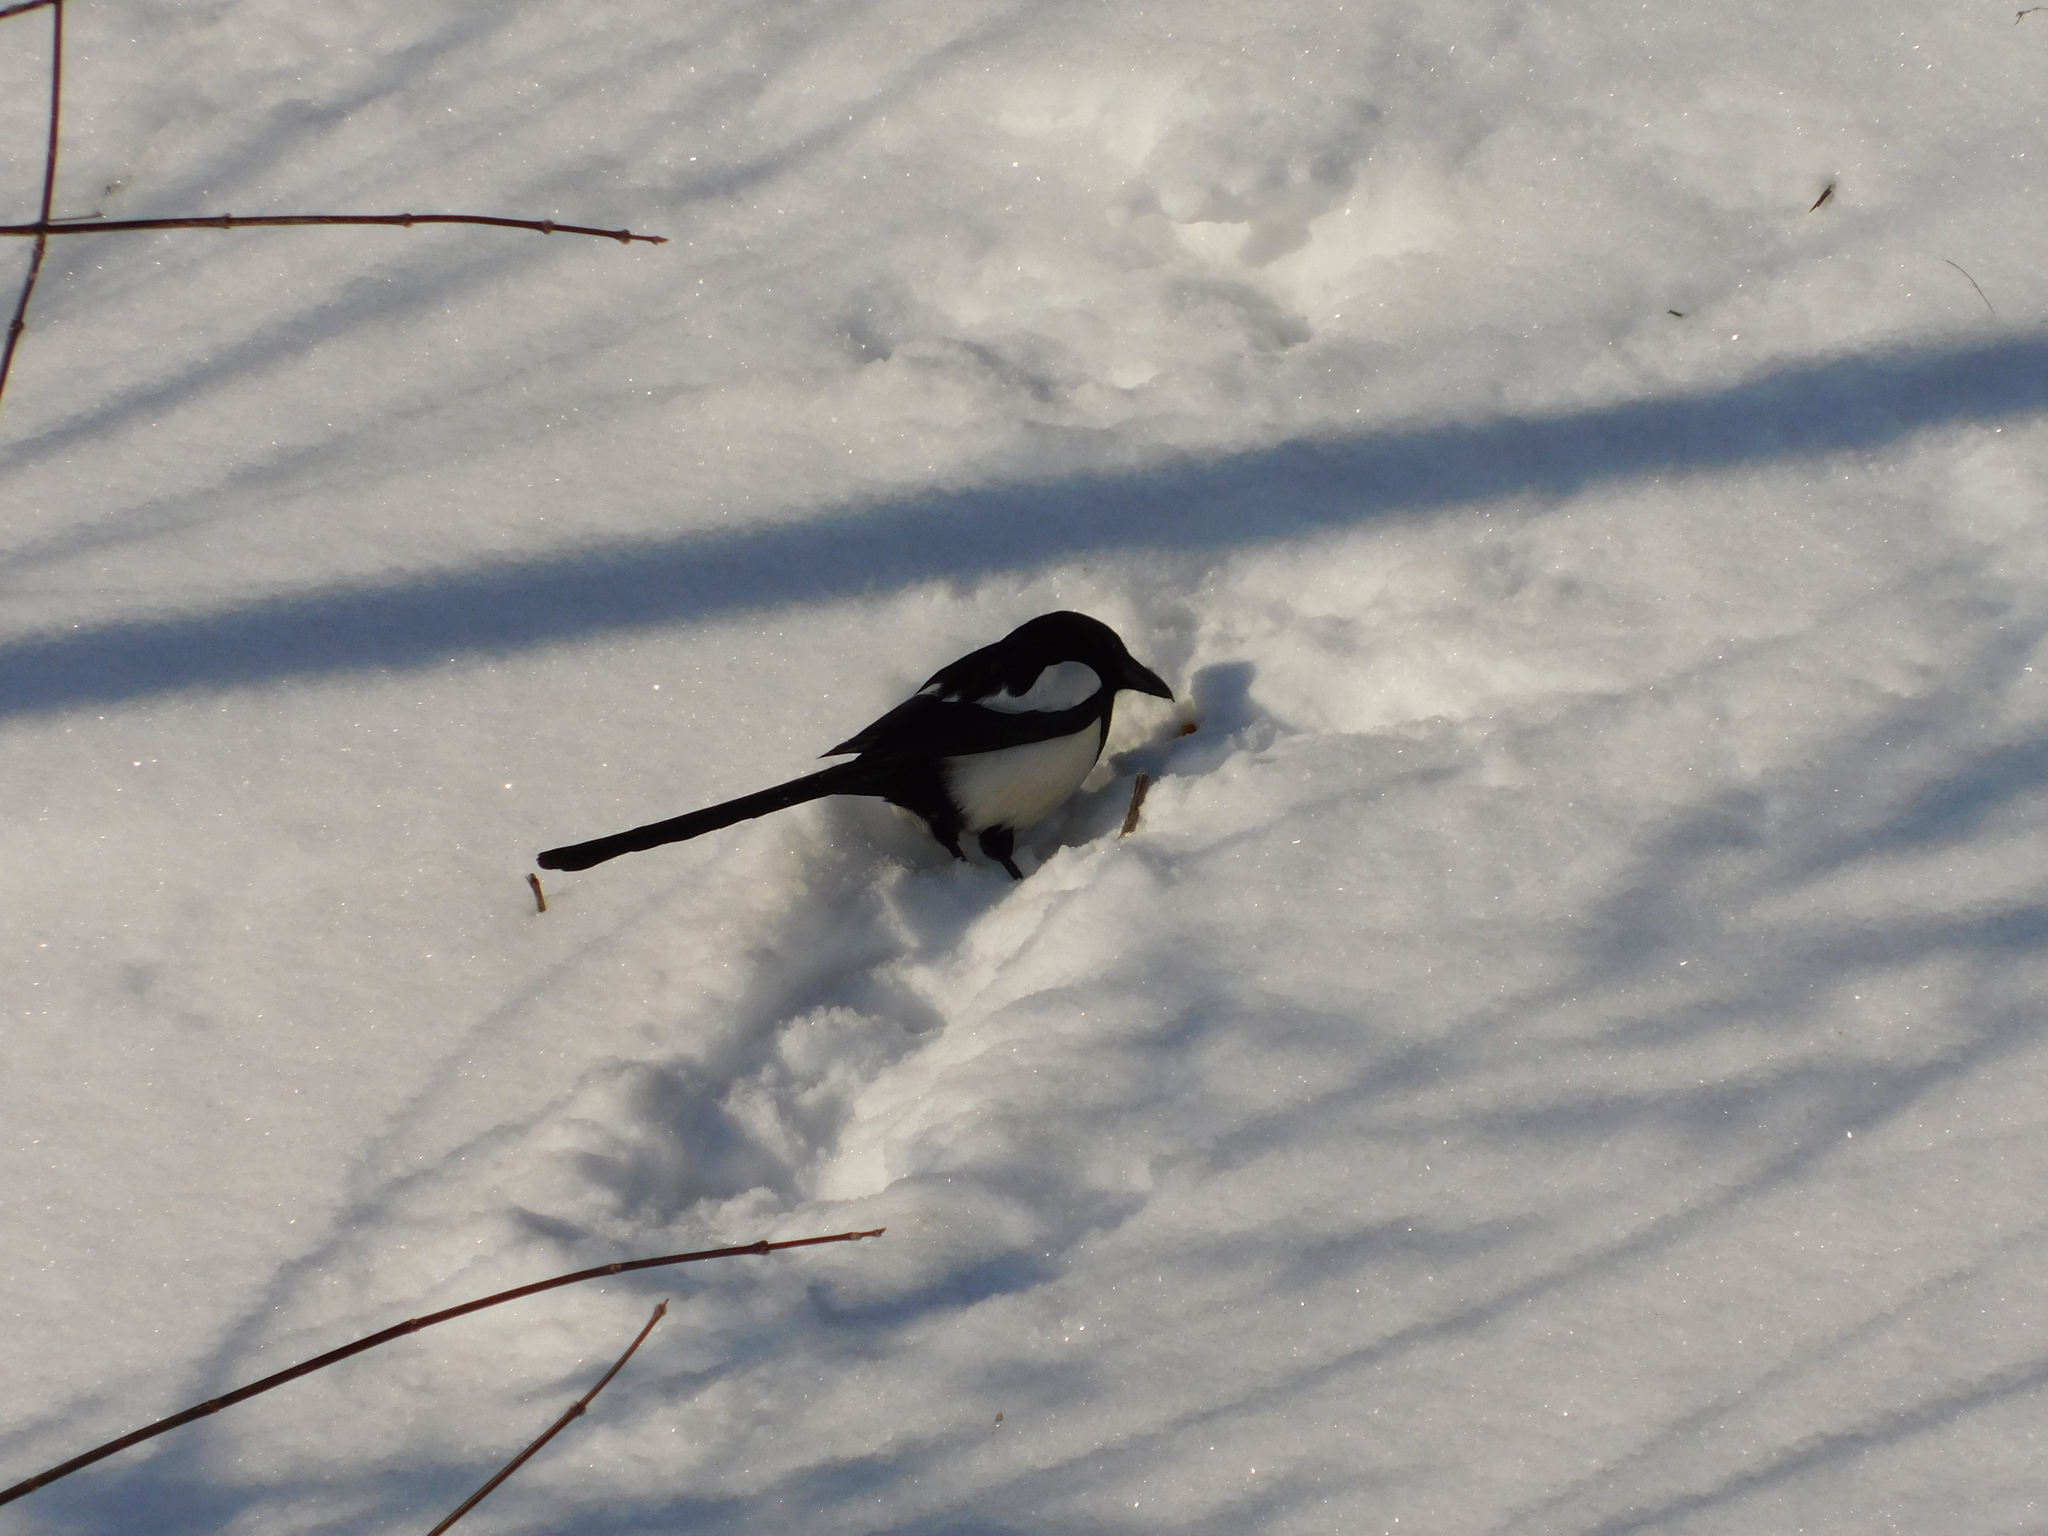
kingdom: Animalia
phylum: Chordata
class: Aves
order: Passeriformes
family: Corvidae
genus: Pica
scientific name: Pica pica
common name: Eurasian magpie
